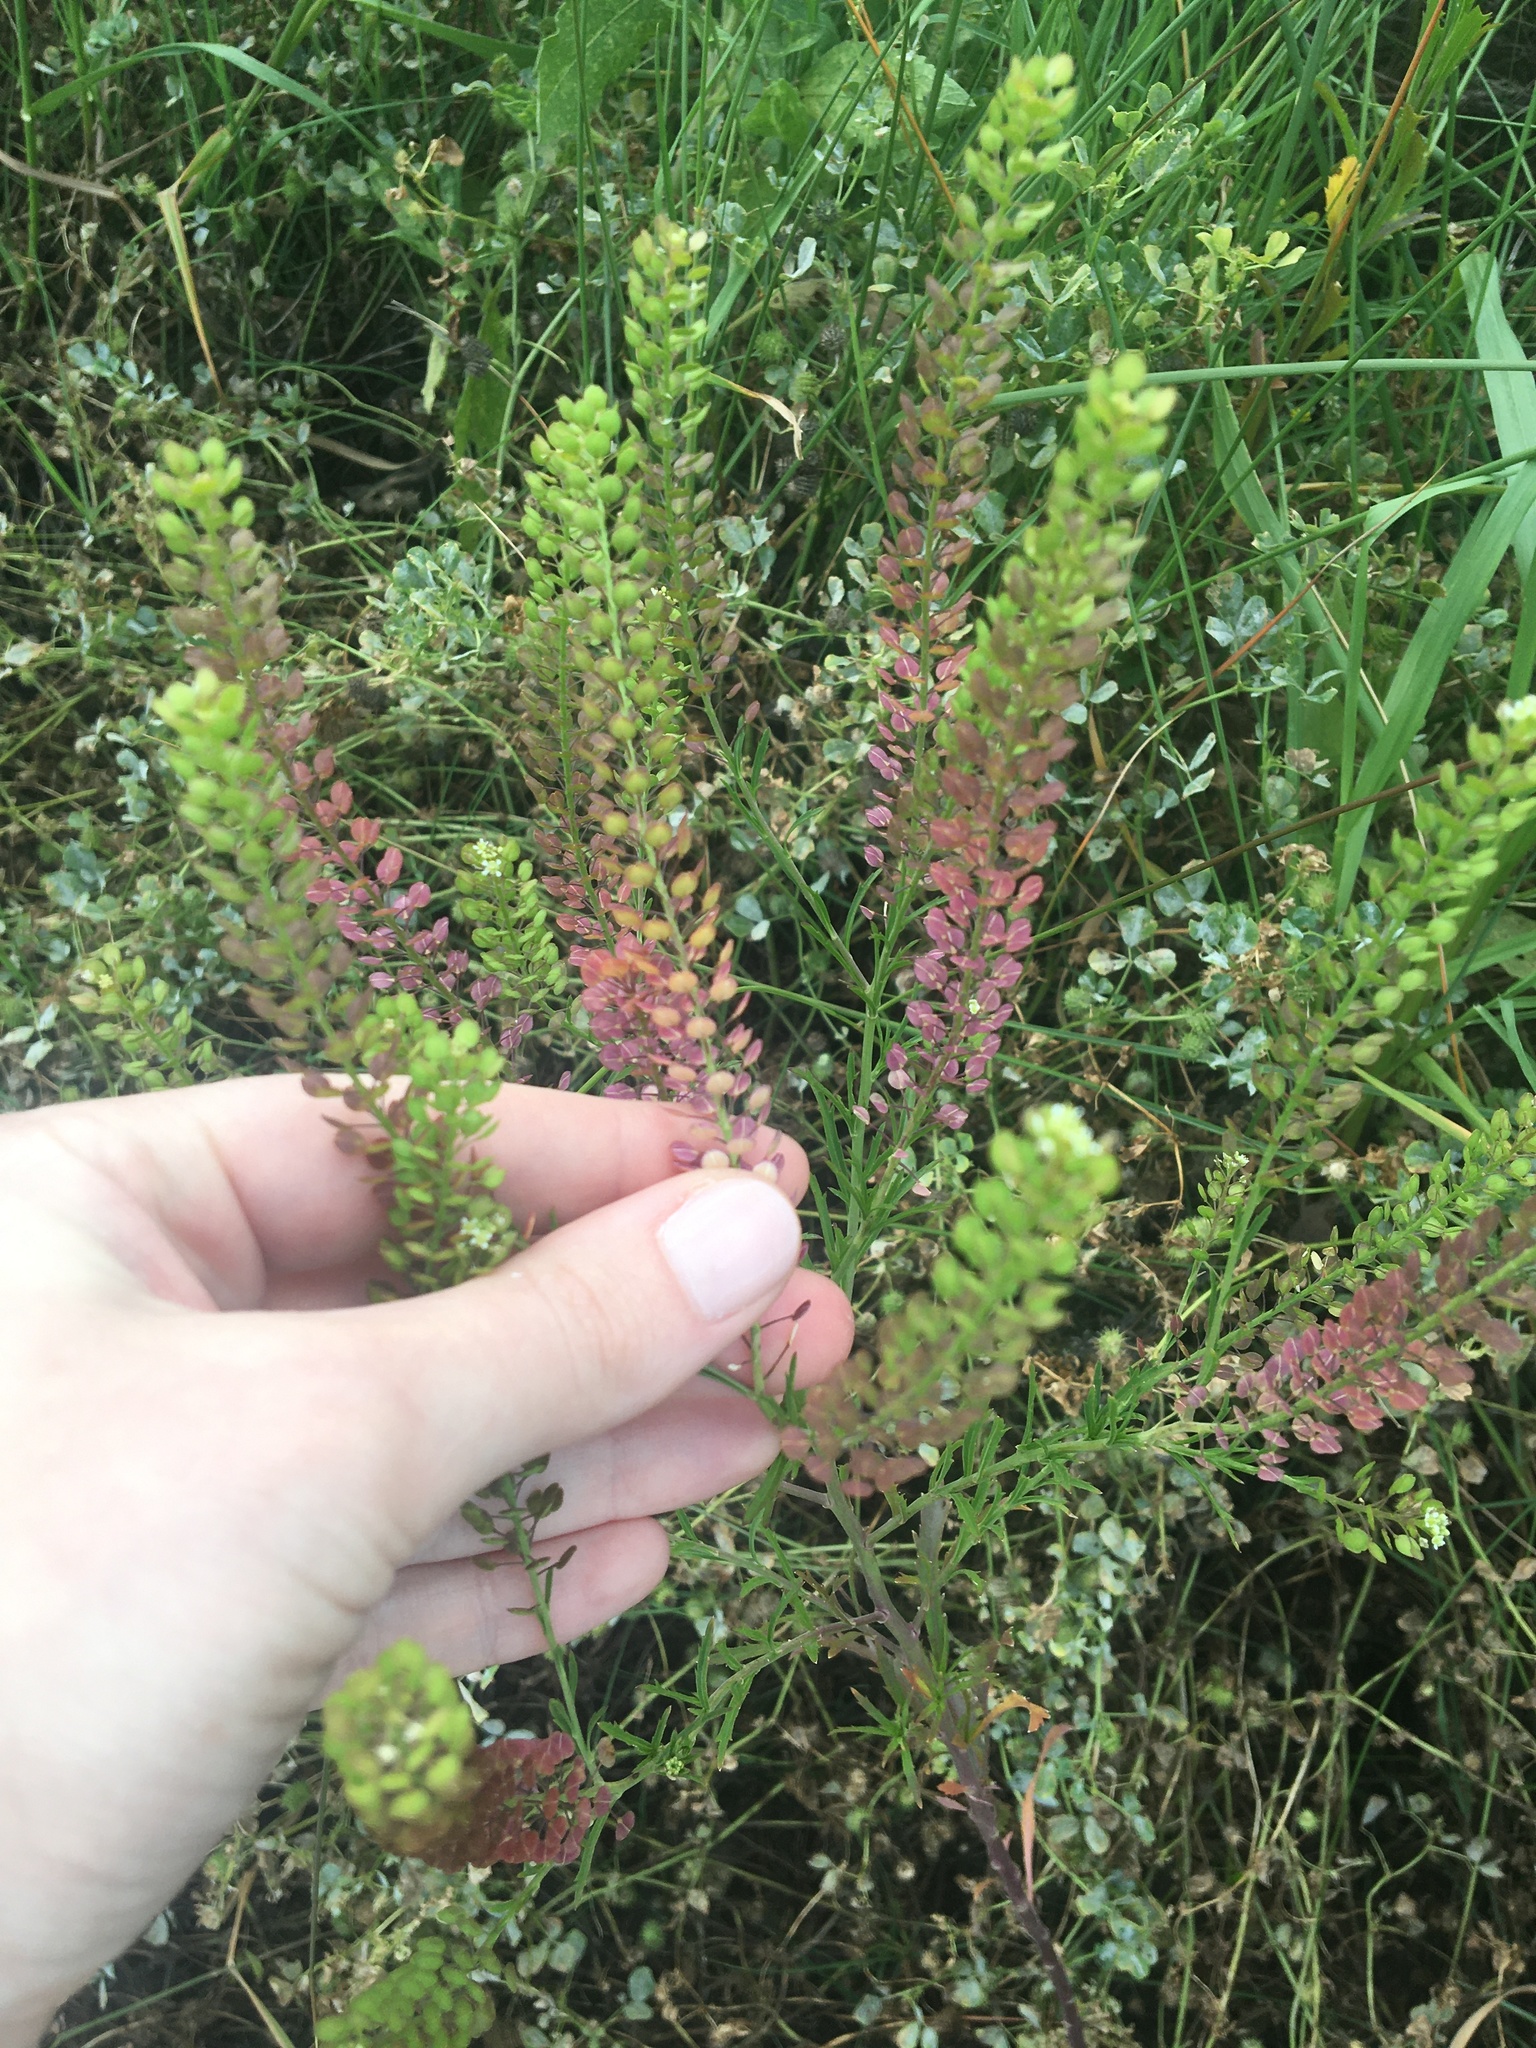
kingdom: Plantae
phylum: Tracheophyta
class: Magnoliopsida
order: Brassicales
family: Brassicaceae
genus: Lepidium
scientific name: Lepidium virginicum
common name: Least pepperwort
